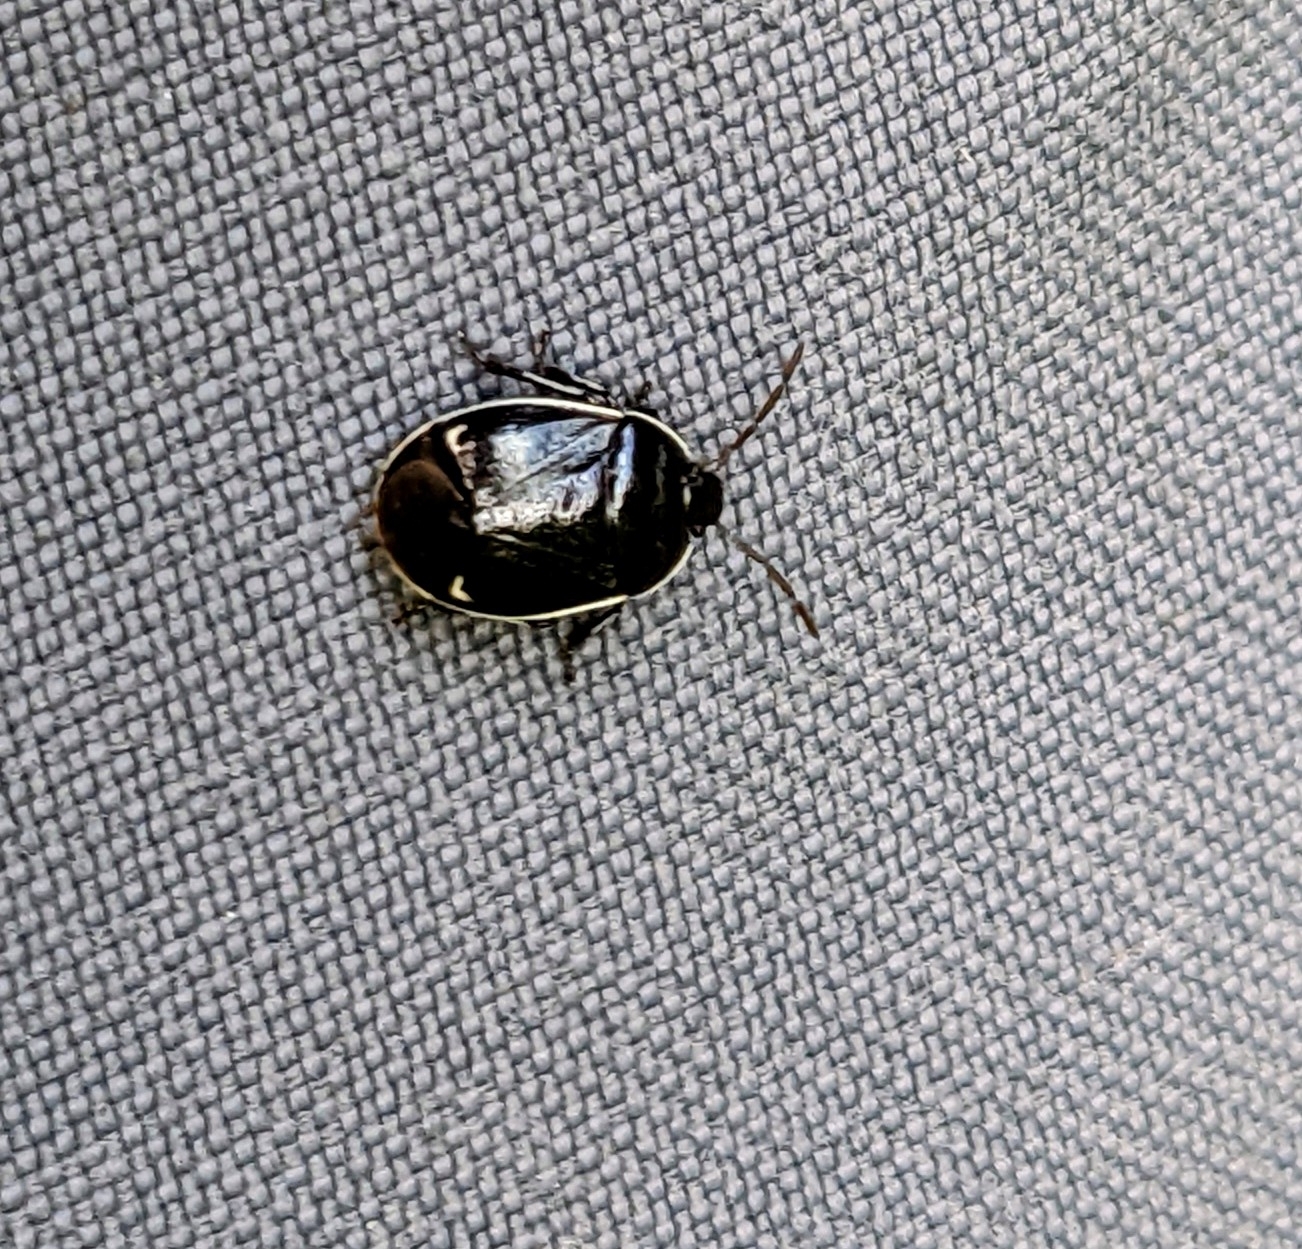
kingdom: Animalia
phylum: Arthropoda
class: Insecta
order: Hemiptera
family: Cydnidae
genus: Sehirus
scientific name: Sehirus cinctus
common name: White-margined burrower bug
